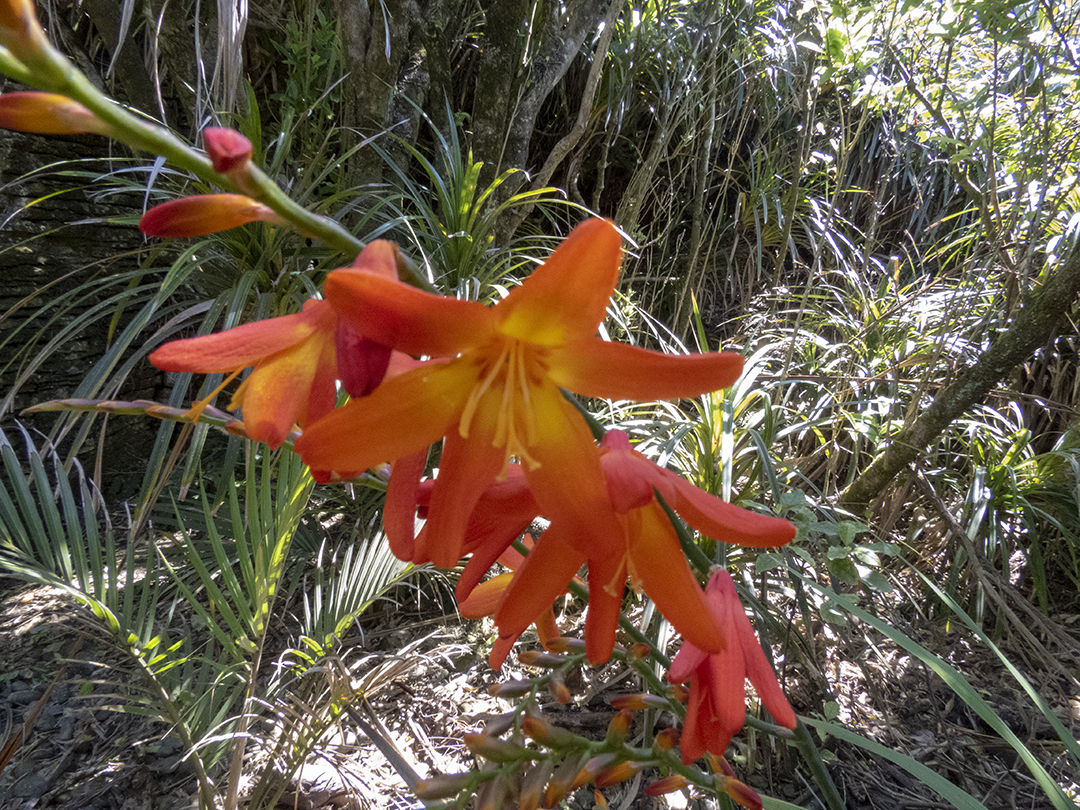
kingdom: Plantae
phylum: Tracheophyta
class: Liliopsida
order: Asparagales
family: Iridaceae
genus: Crocosmia
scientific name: Crocosmia crocosmiiflora
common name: Montbretia
